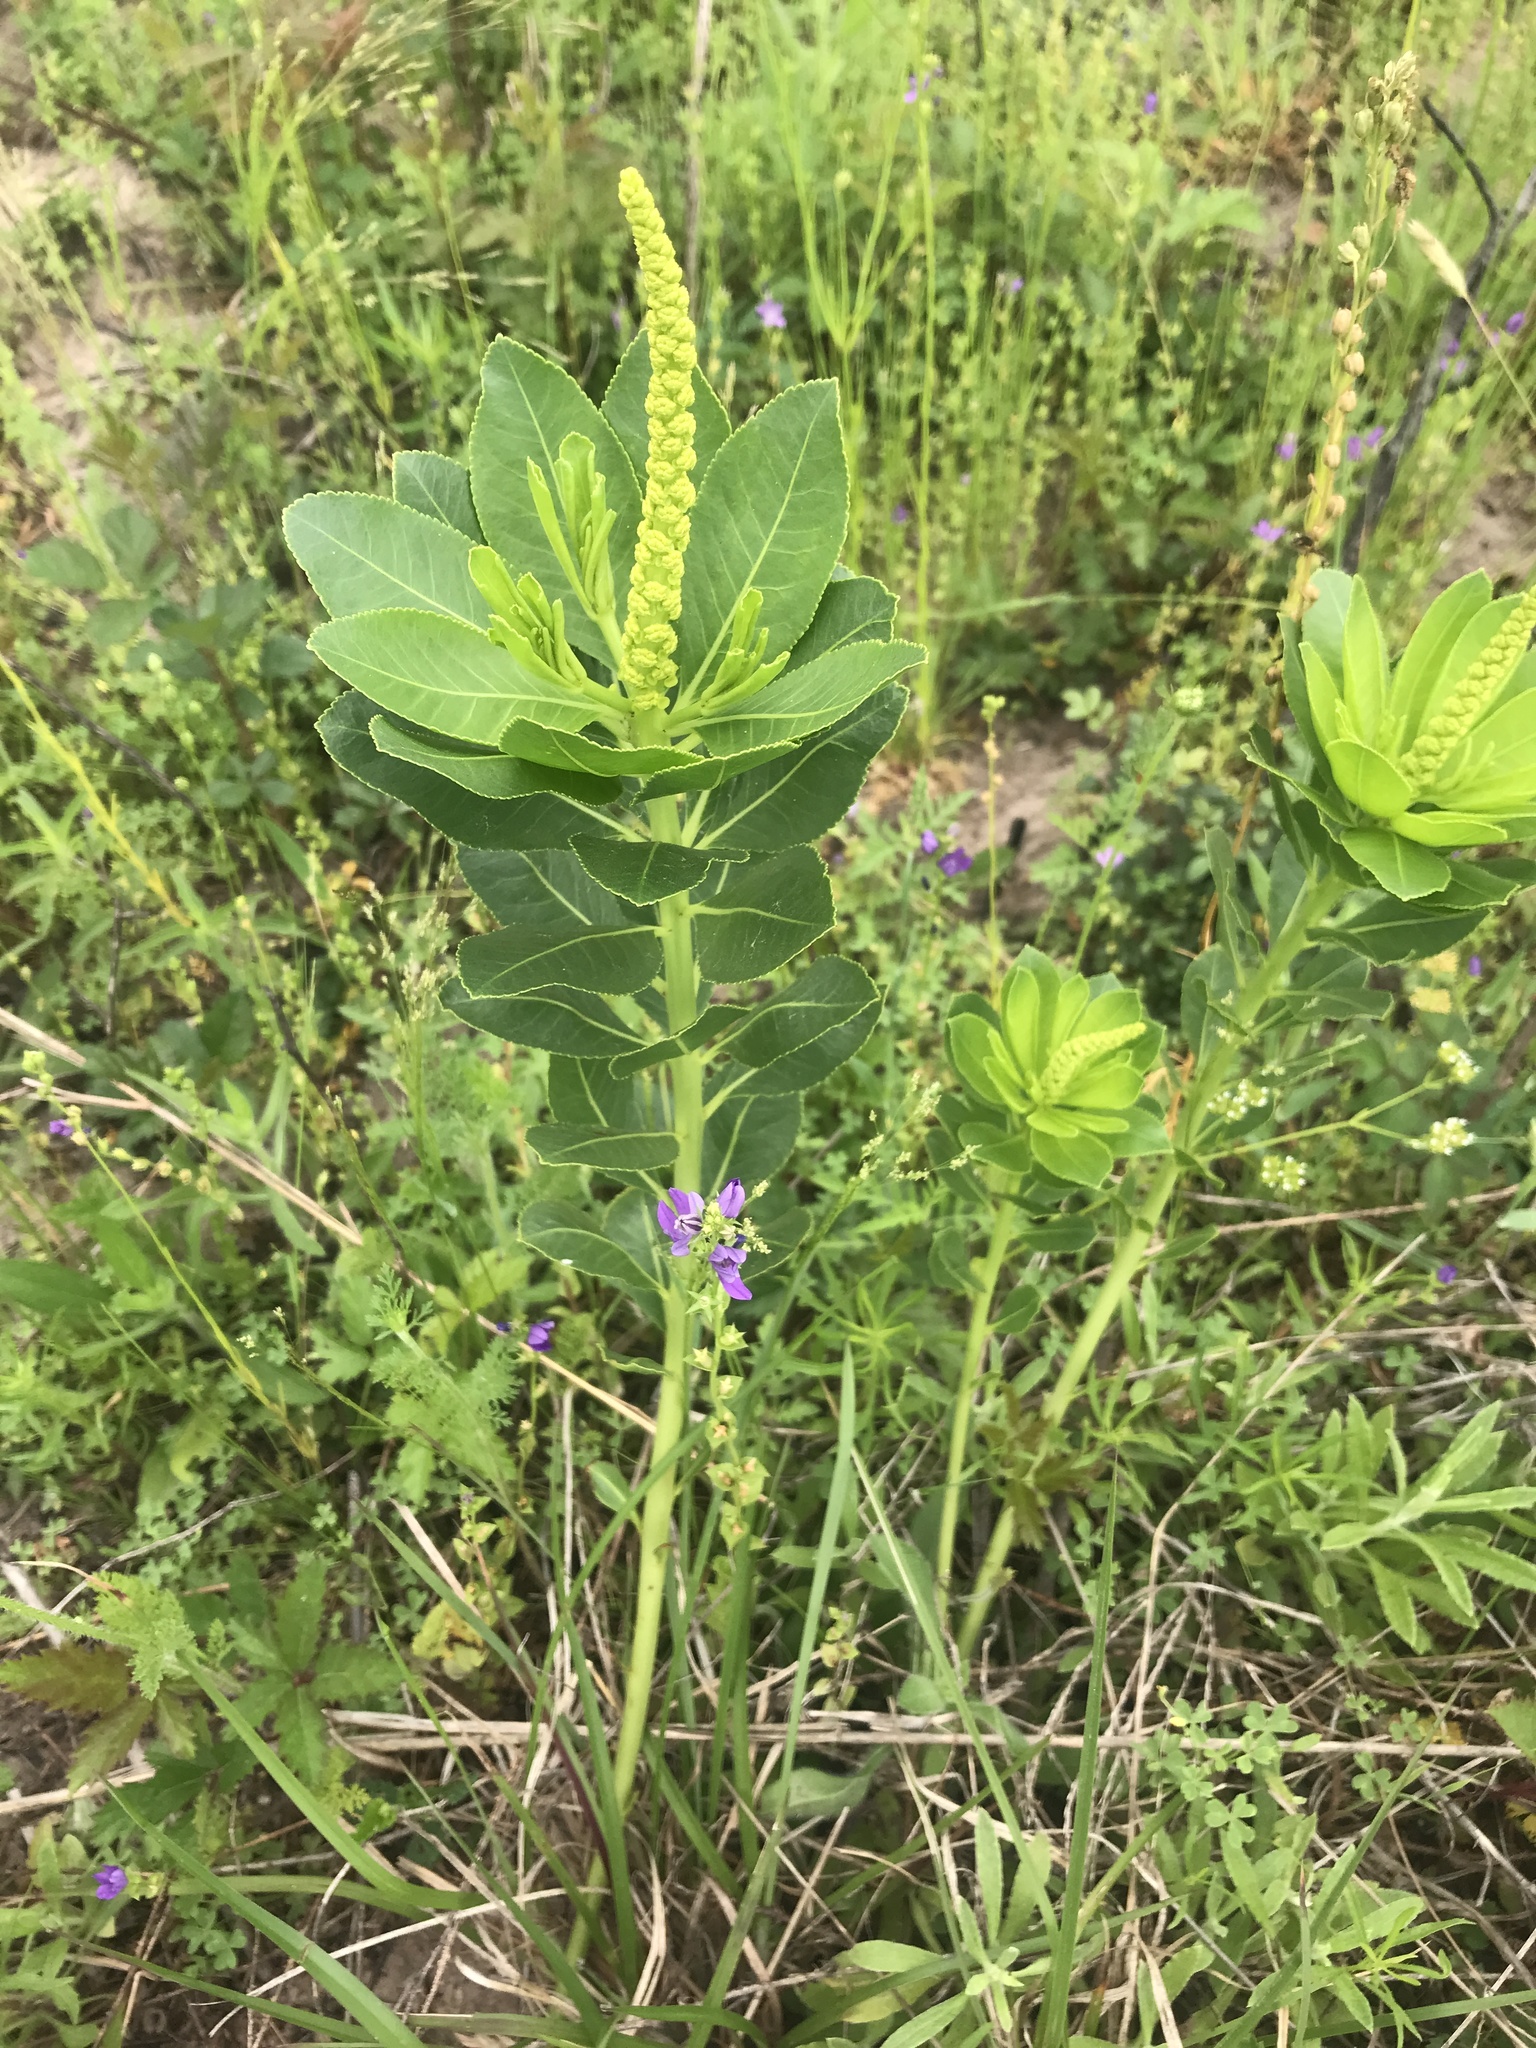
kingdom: Plantae
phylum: Tracheophyta
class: Magnoliopsida
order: Malpighiales
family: Euphorbiaceae
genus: Stillingia
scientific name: Stillingia sylvatica
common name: Queen's-delight
